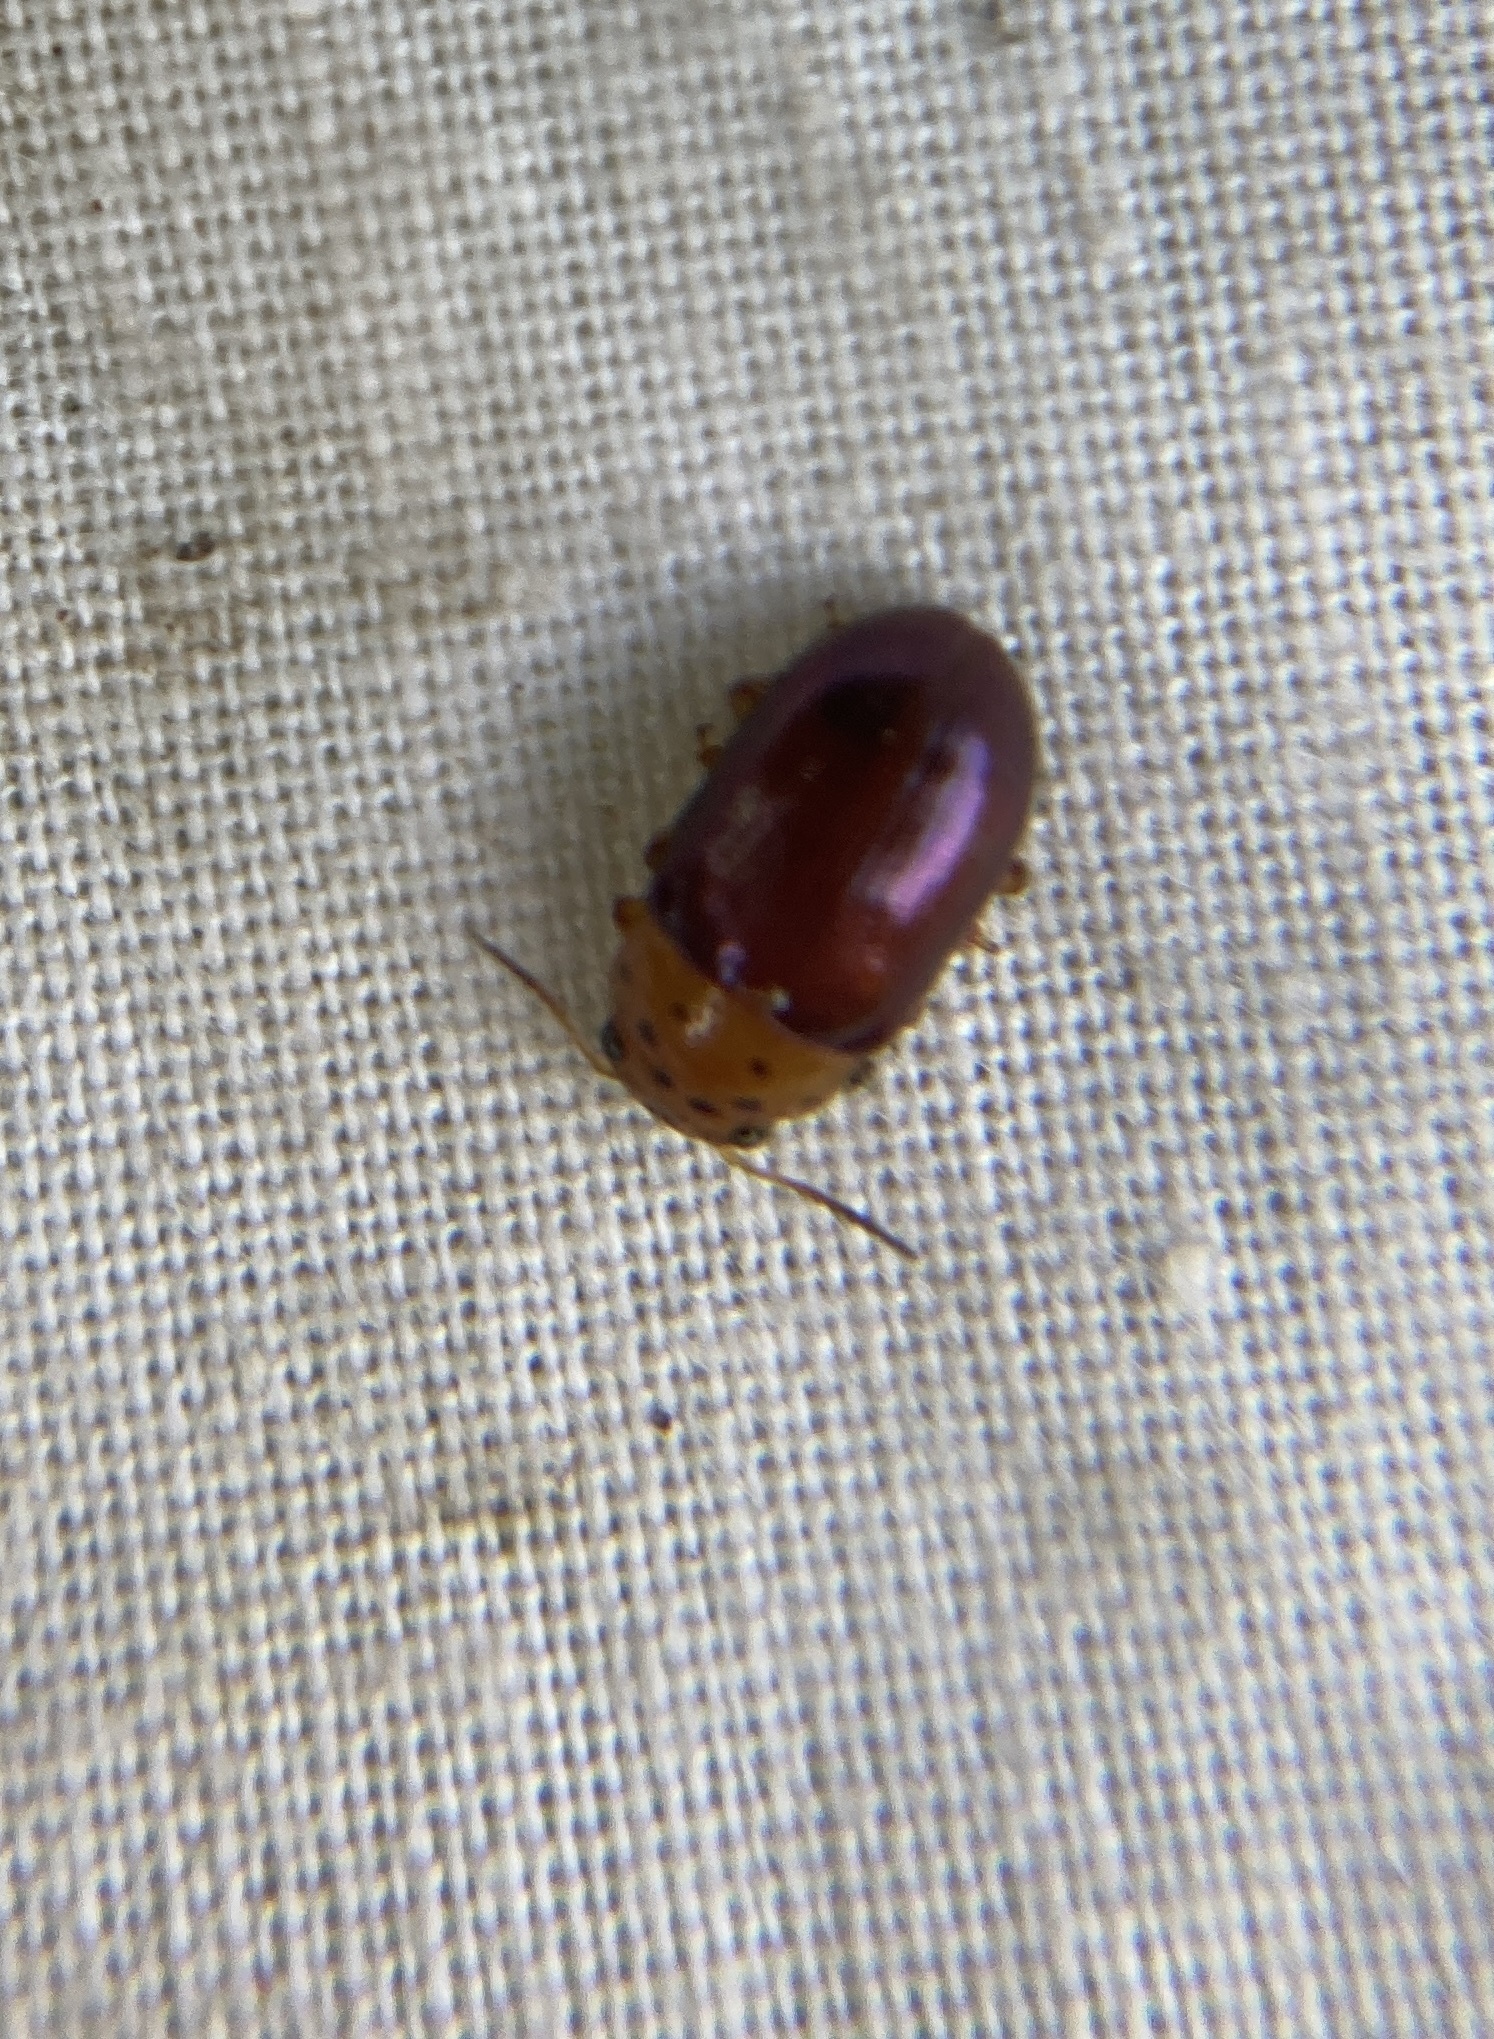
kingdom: Animalia
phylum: Arthropoda
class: Insecta
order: Coleoptera
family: Chrysomelidae
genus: Platymela
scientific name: Platymela
